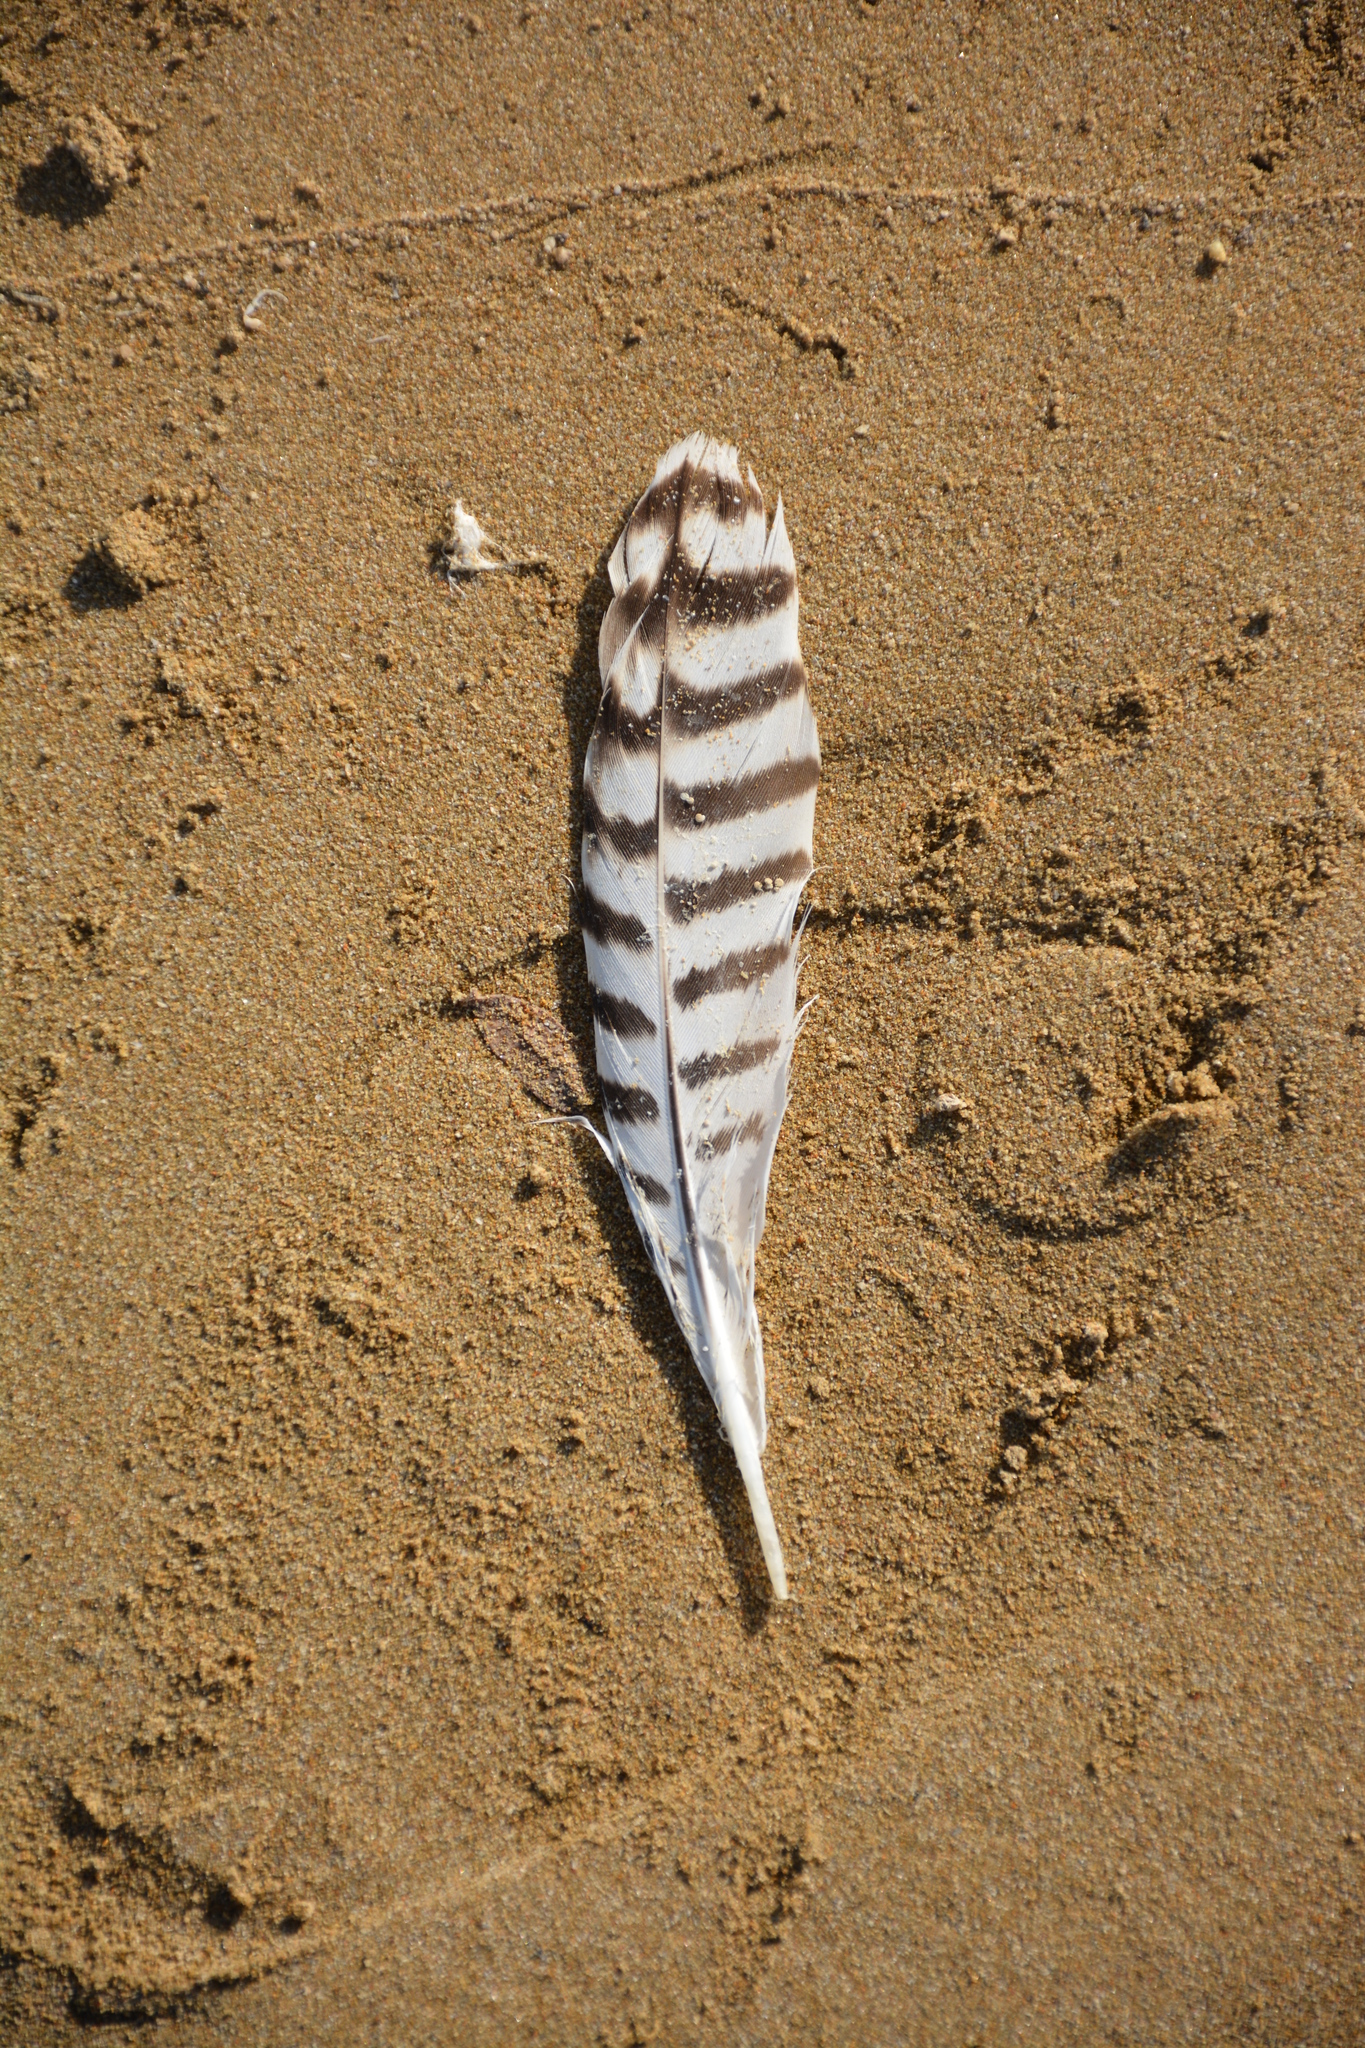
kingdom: Animalia
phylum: Chordata
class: Aves
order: Charadriiformes
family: Scolopacidae
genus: Numenius
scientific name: Numenius arquata
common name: Eurasian curlew
